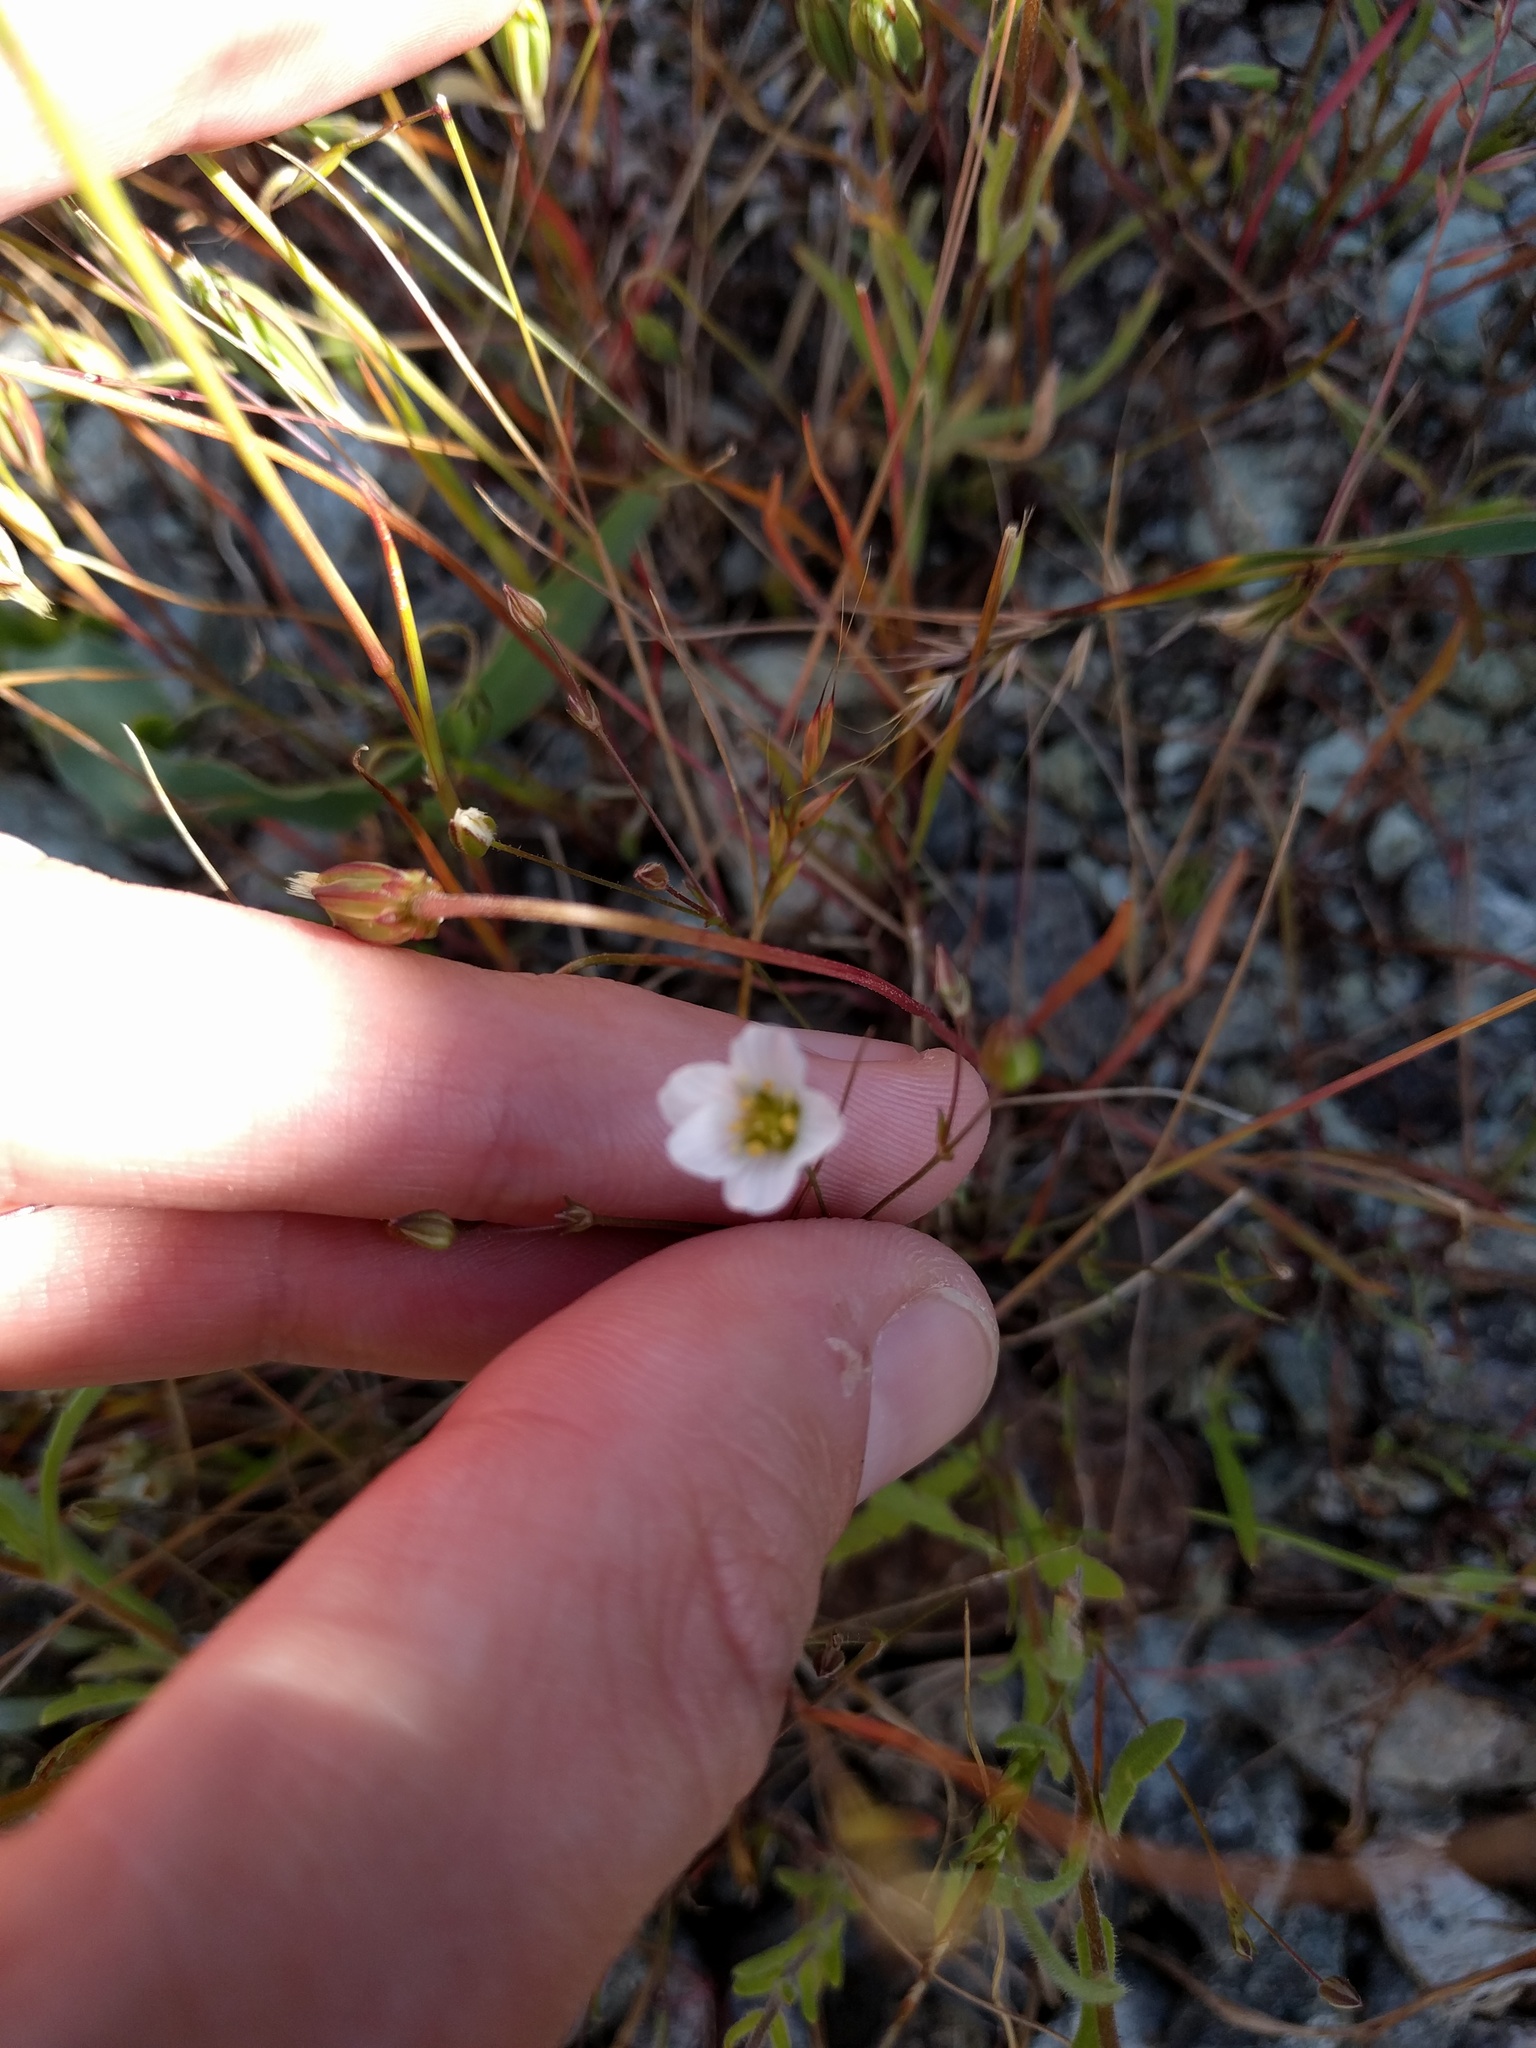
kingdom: Plantae
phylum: Tracheophyta
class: Magnoliopsida
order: Caryophyllales
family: Caryophyllaceae
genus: Sabulina
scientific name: Sabulina douglasii
